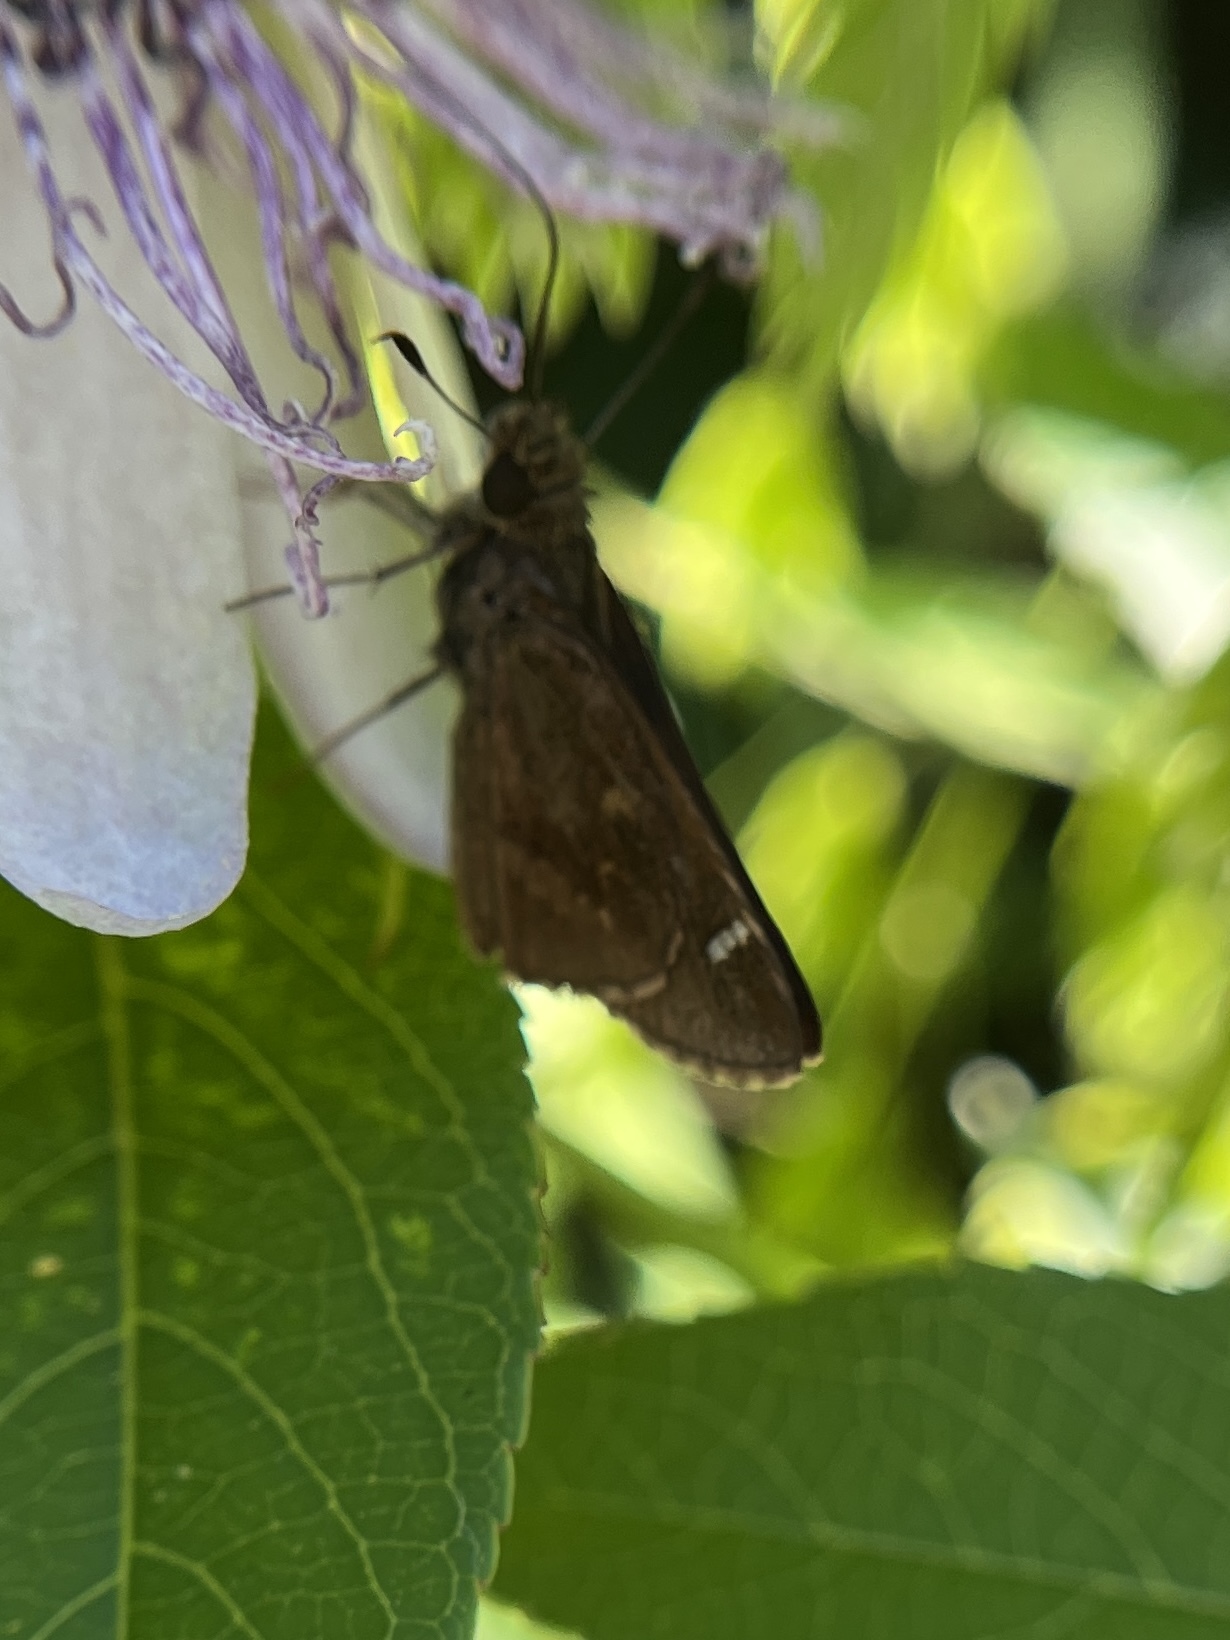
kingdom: Animalia
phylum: Arthropoda
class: Insecta
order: Lepidoptera
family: Hesperiidae
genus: Lerema
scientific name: Lerema accius
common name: Clouded skipper
